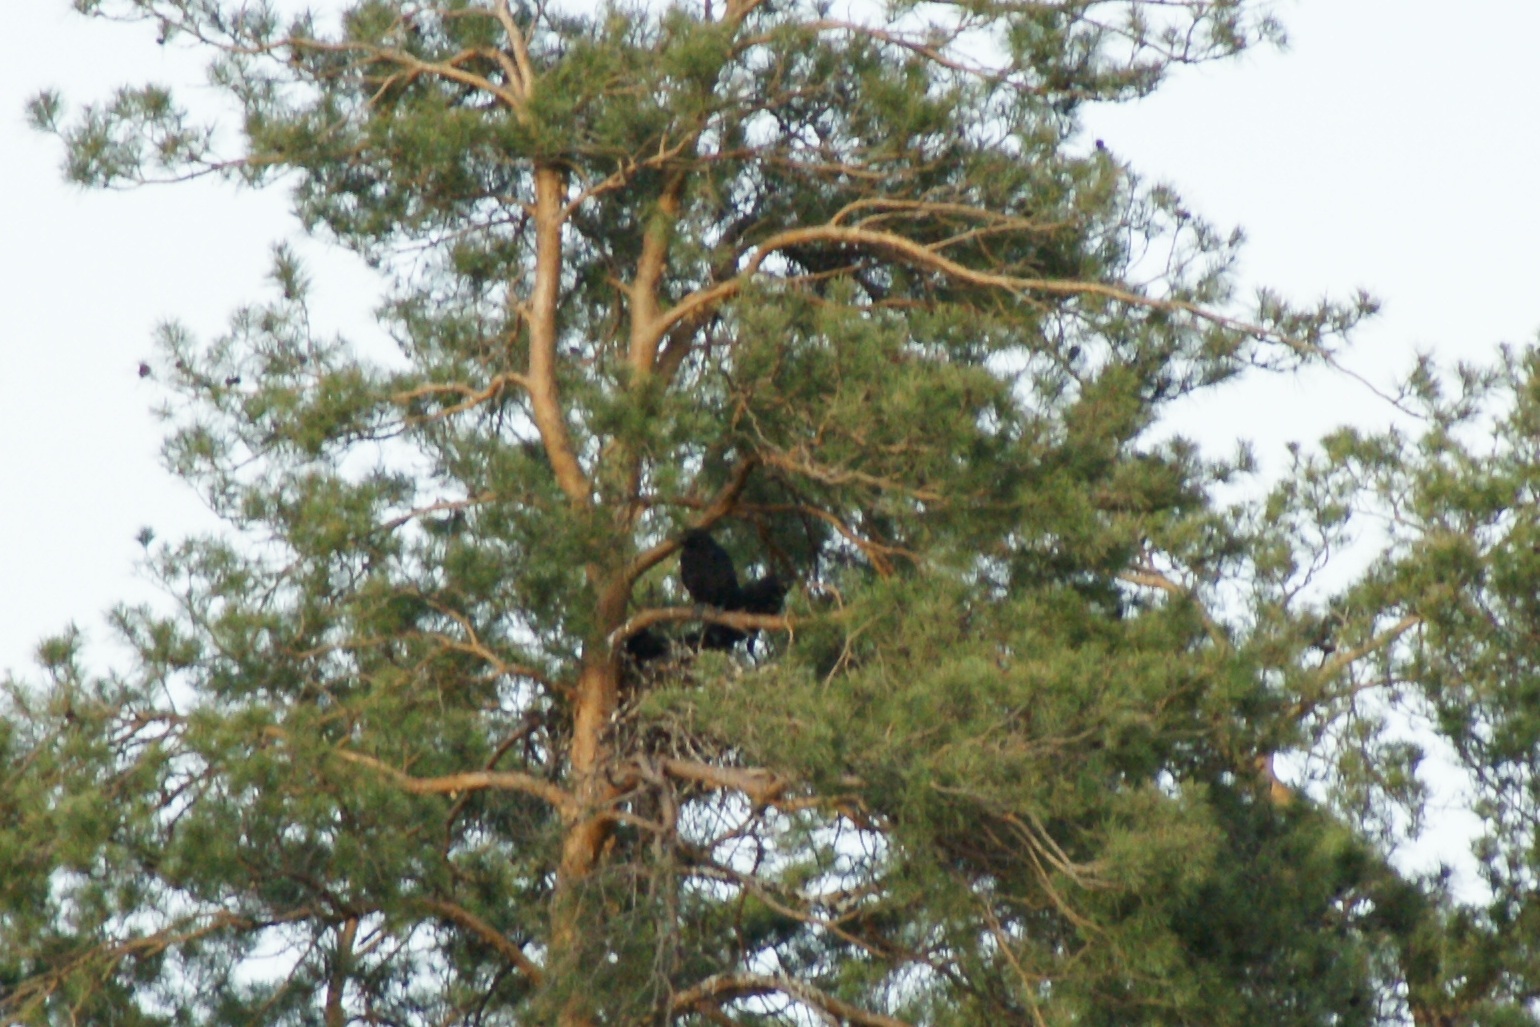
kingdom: Animalia
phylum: Chordata
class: Aves
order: Passeriformes
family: Corvidae
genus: Corvus
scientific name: Corvus corax
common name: Common raven
